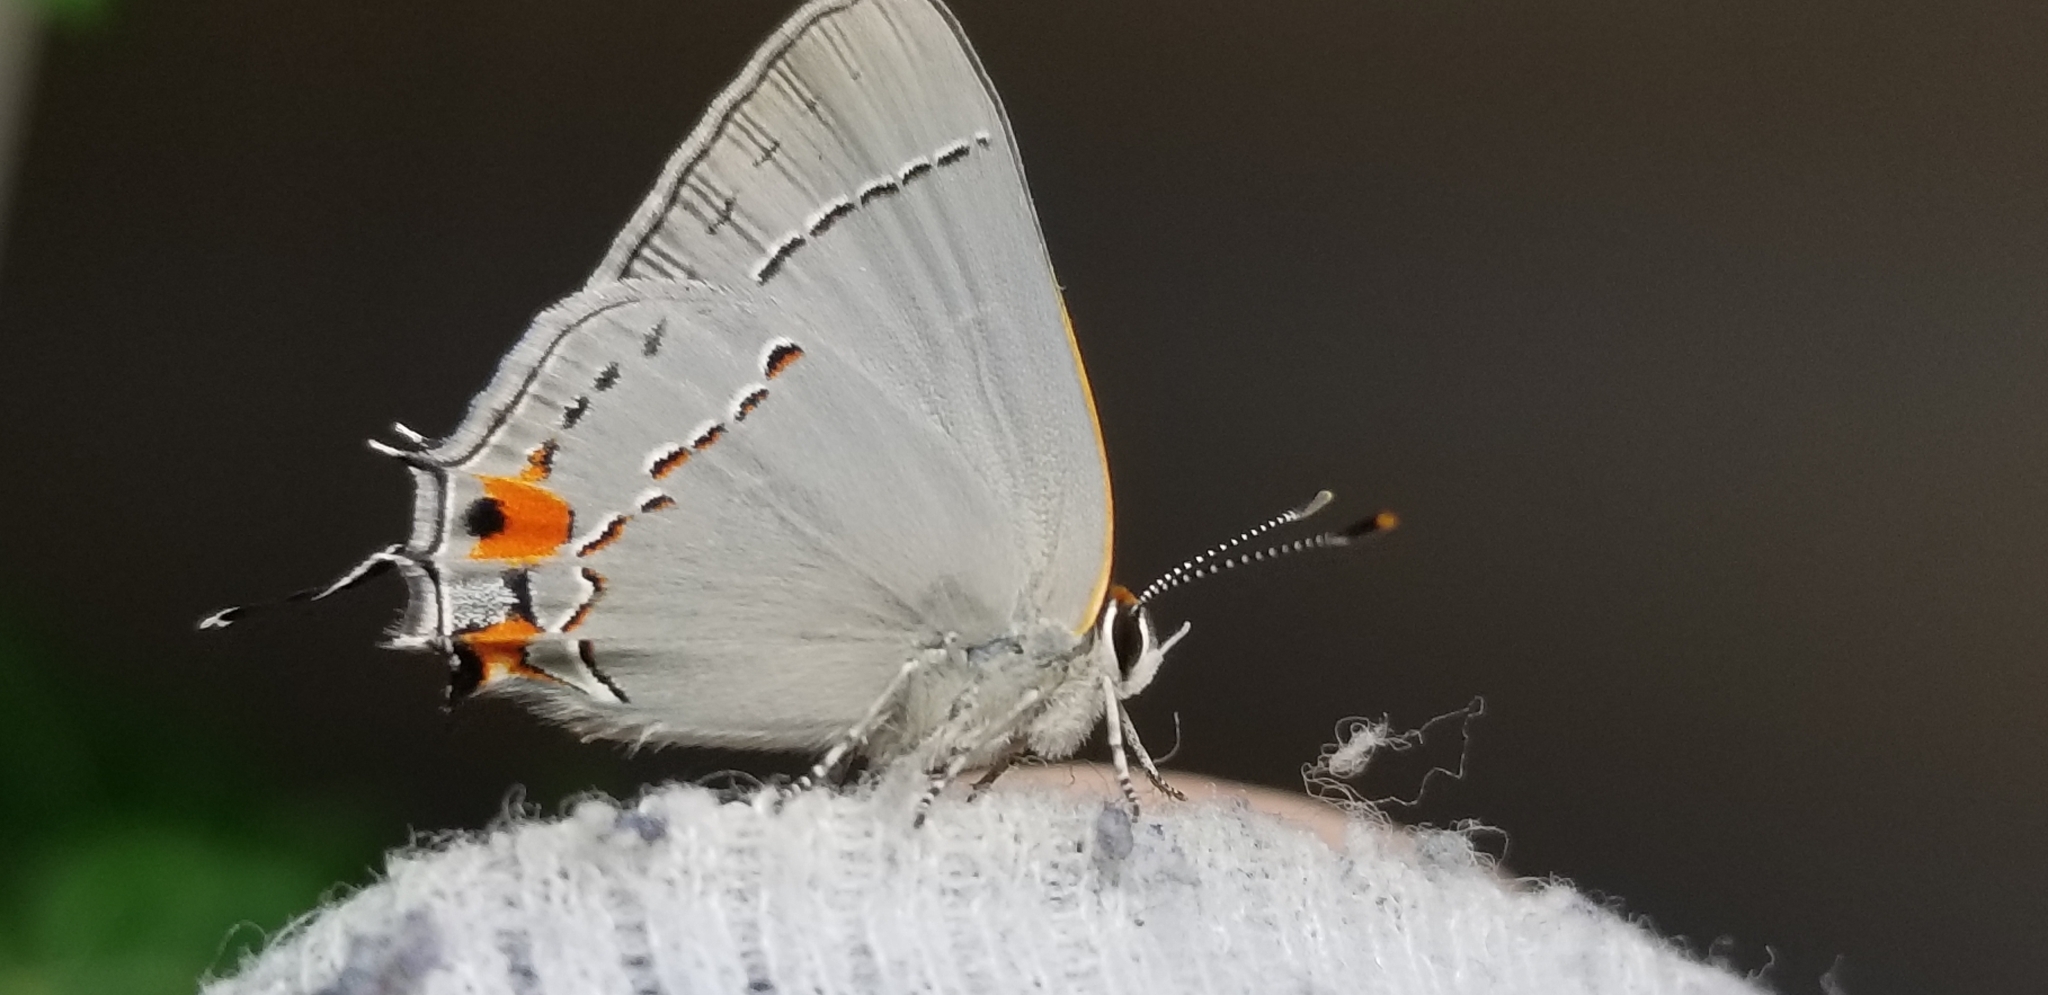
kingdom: Animalia
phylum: Arthropoda
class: Insecta
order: Lepidoptera
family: Lycaenidae
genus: Strymon
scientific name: Strymon melinus
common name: Gray hairstreak
